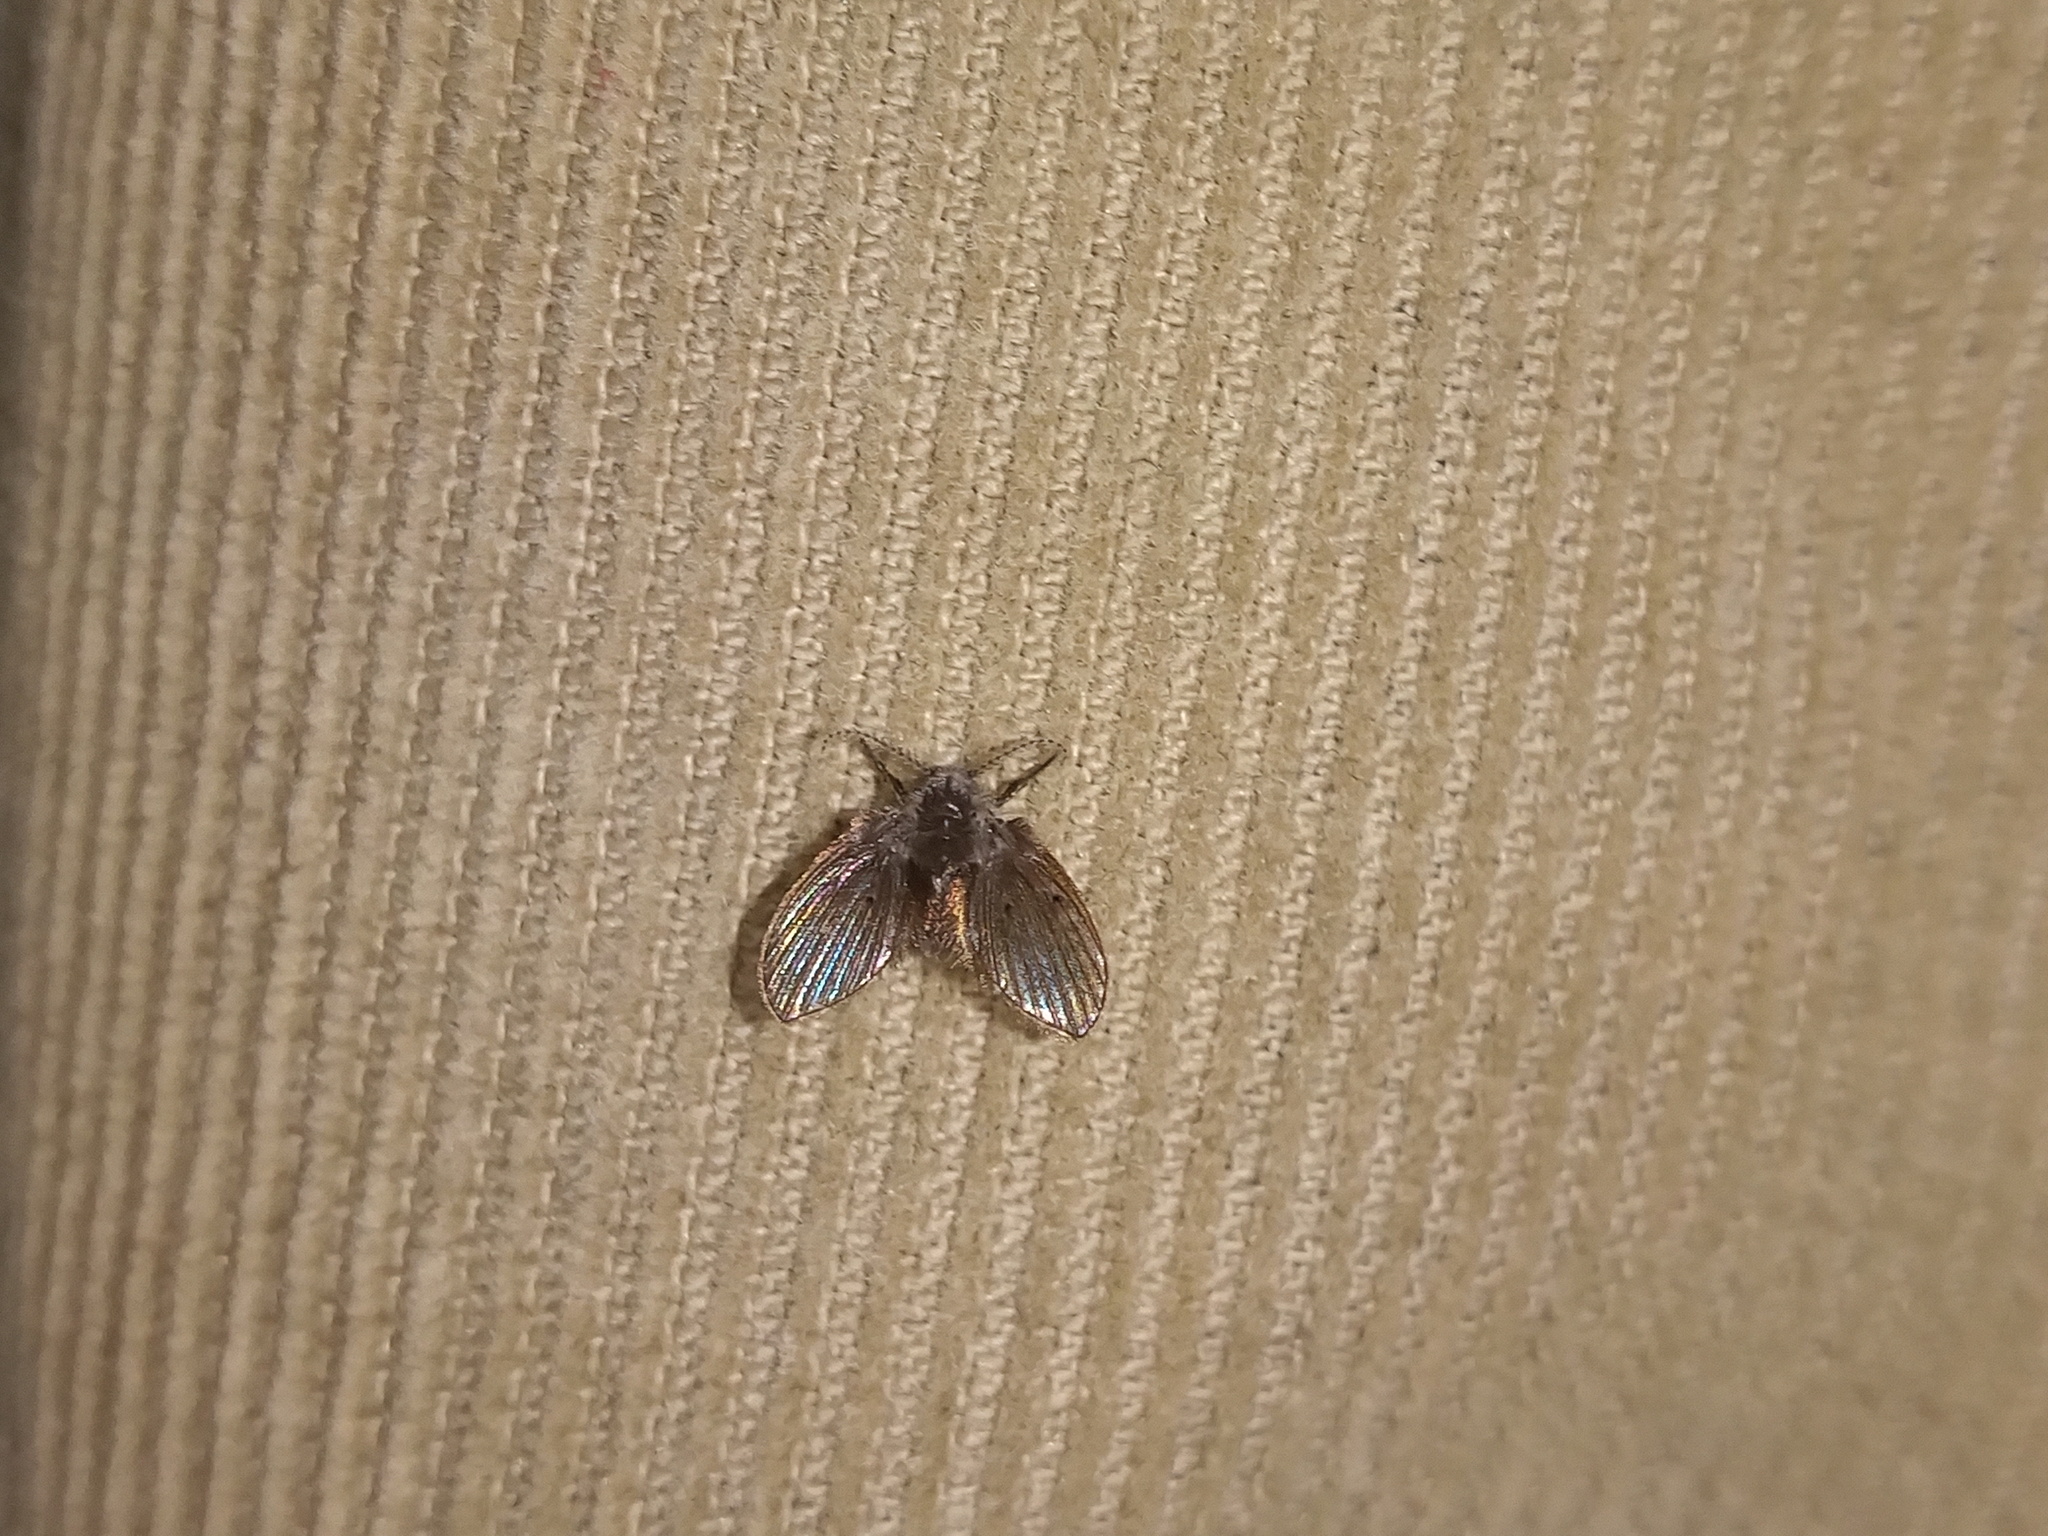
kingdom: Animalia
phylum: Arthropoda
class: Insecta
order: Diptera
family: Psychodidae
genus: Clogmia
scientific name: Clogmia albipunctatus
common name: White-spotted moth fly
